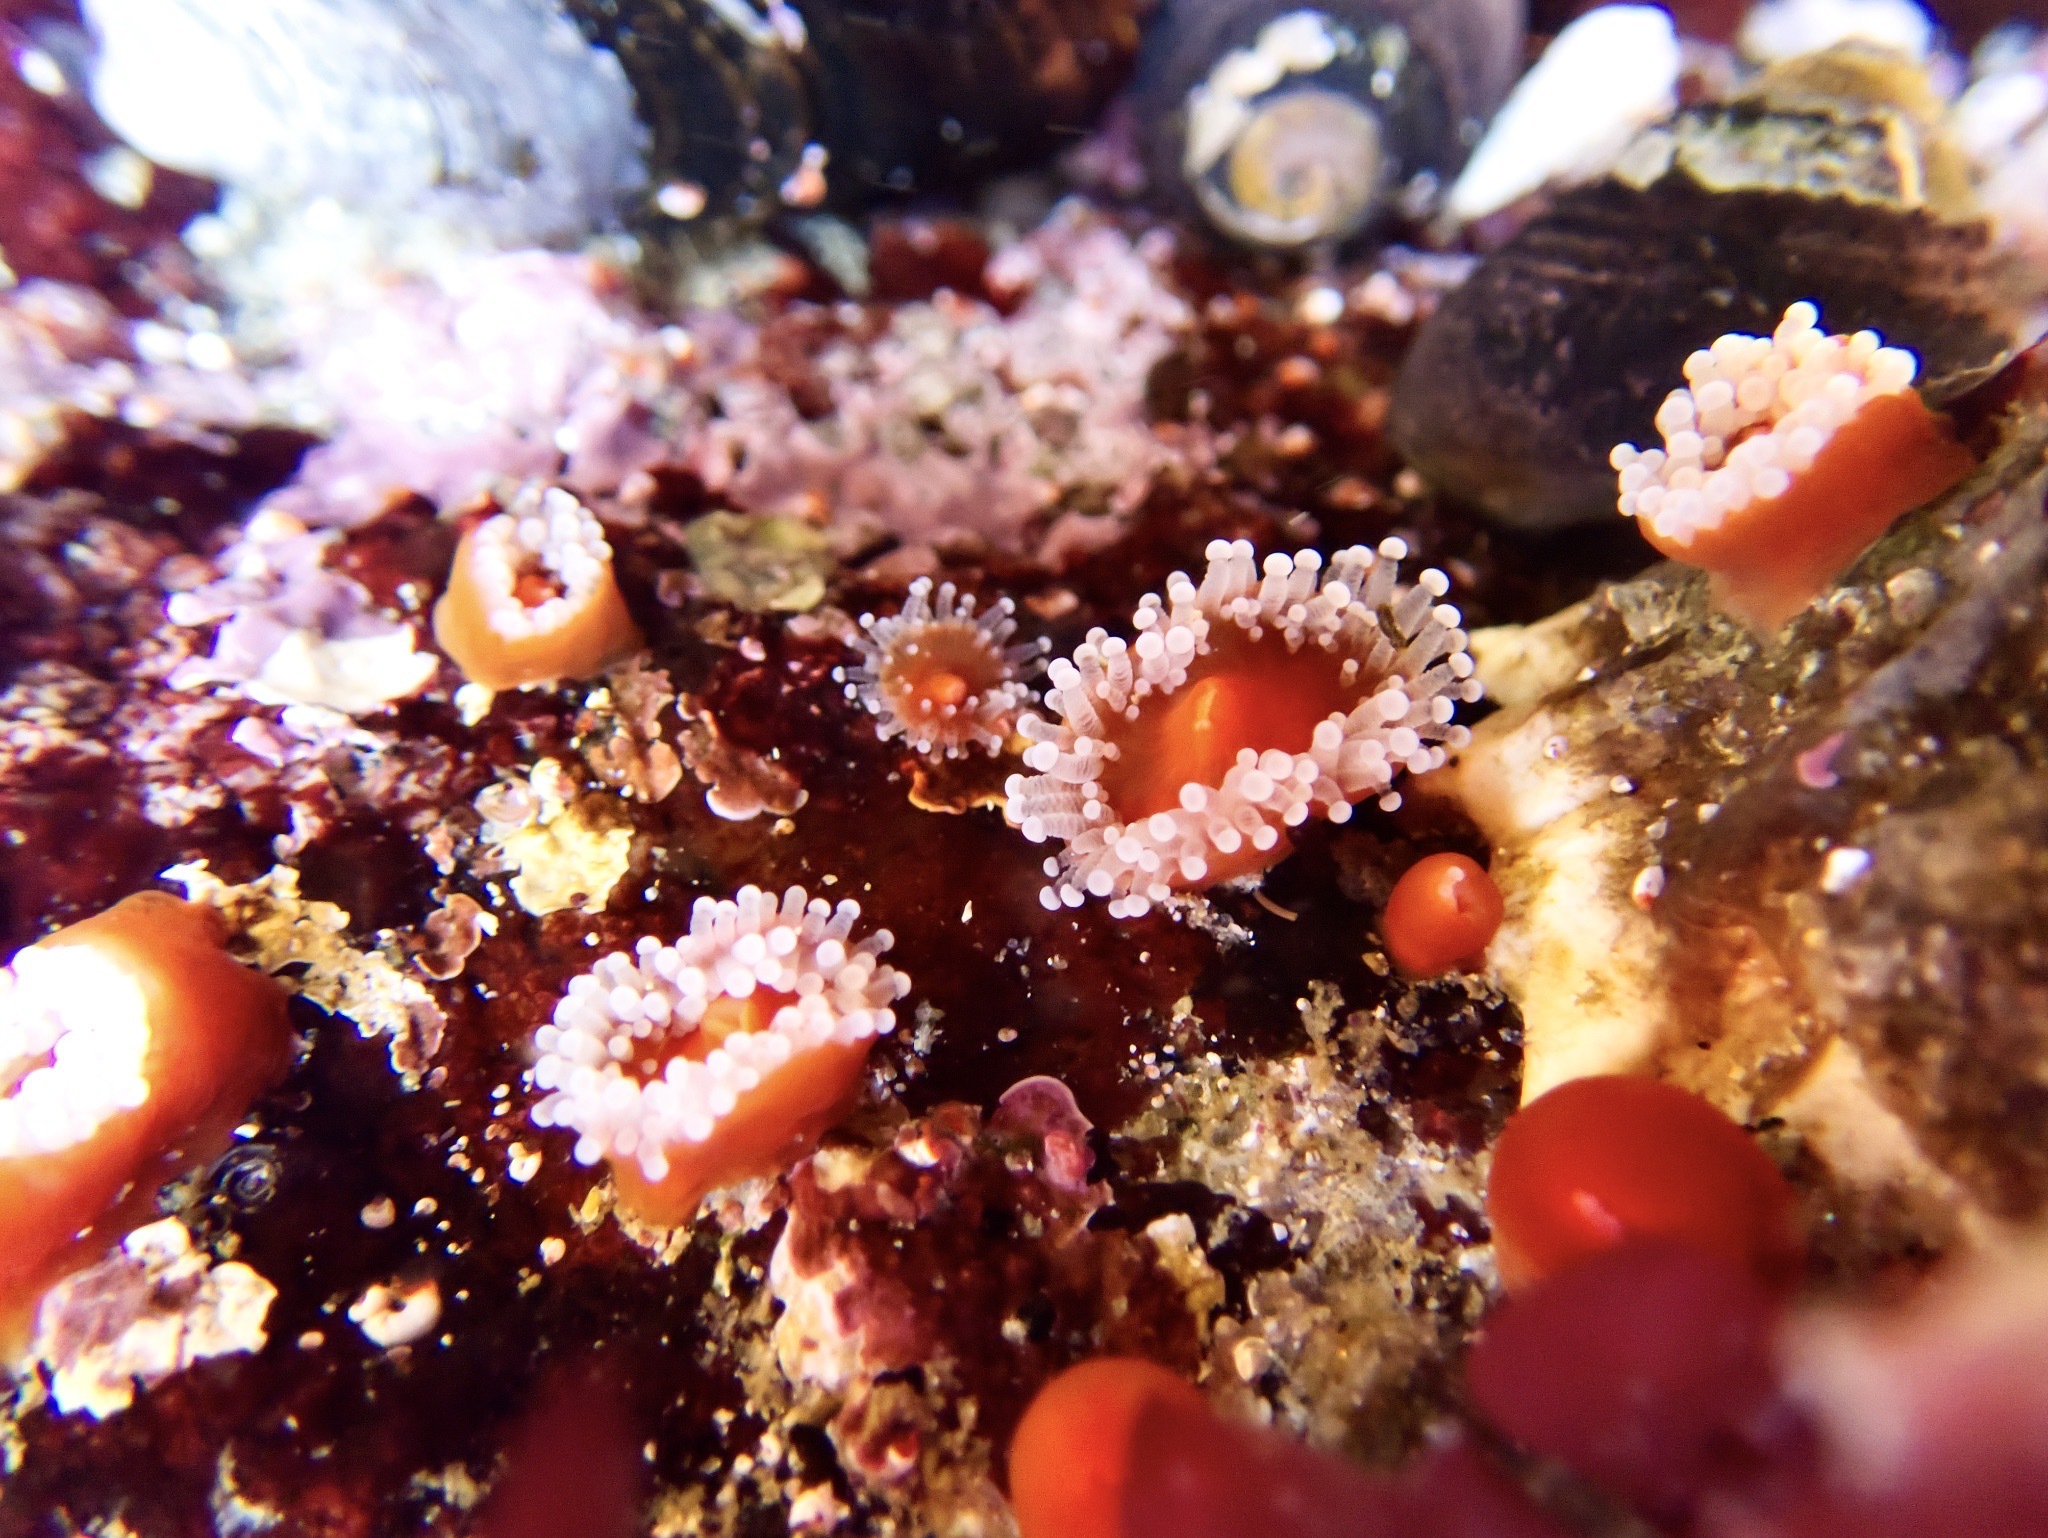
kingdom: Animalia
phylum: Cnidaria
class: Anthozoa
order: Corallimorpharia
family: Corallimorphidae
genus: Corynactis
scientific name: Corynactis californica
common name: Strawberry corallimorpharian
